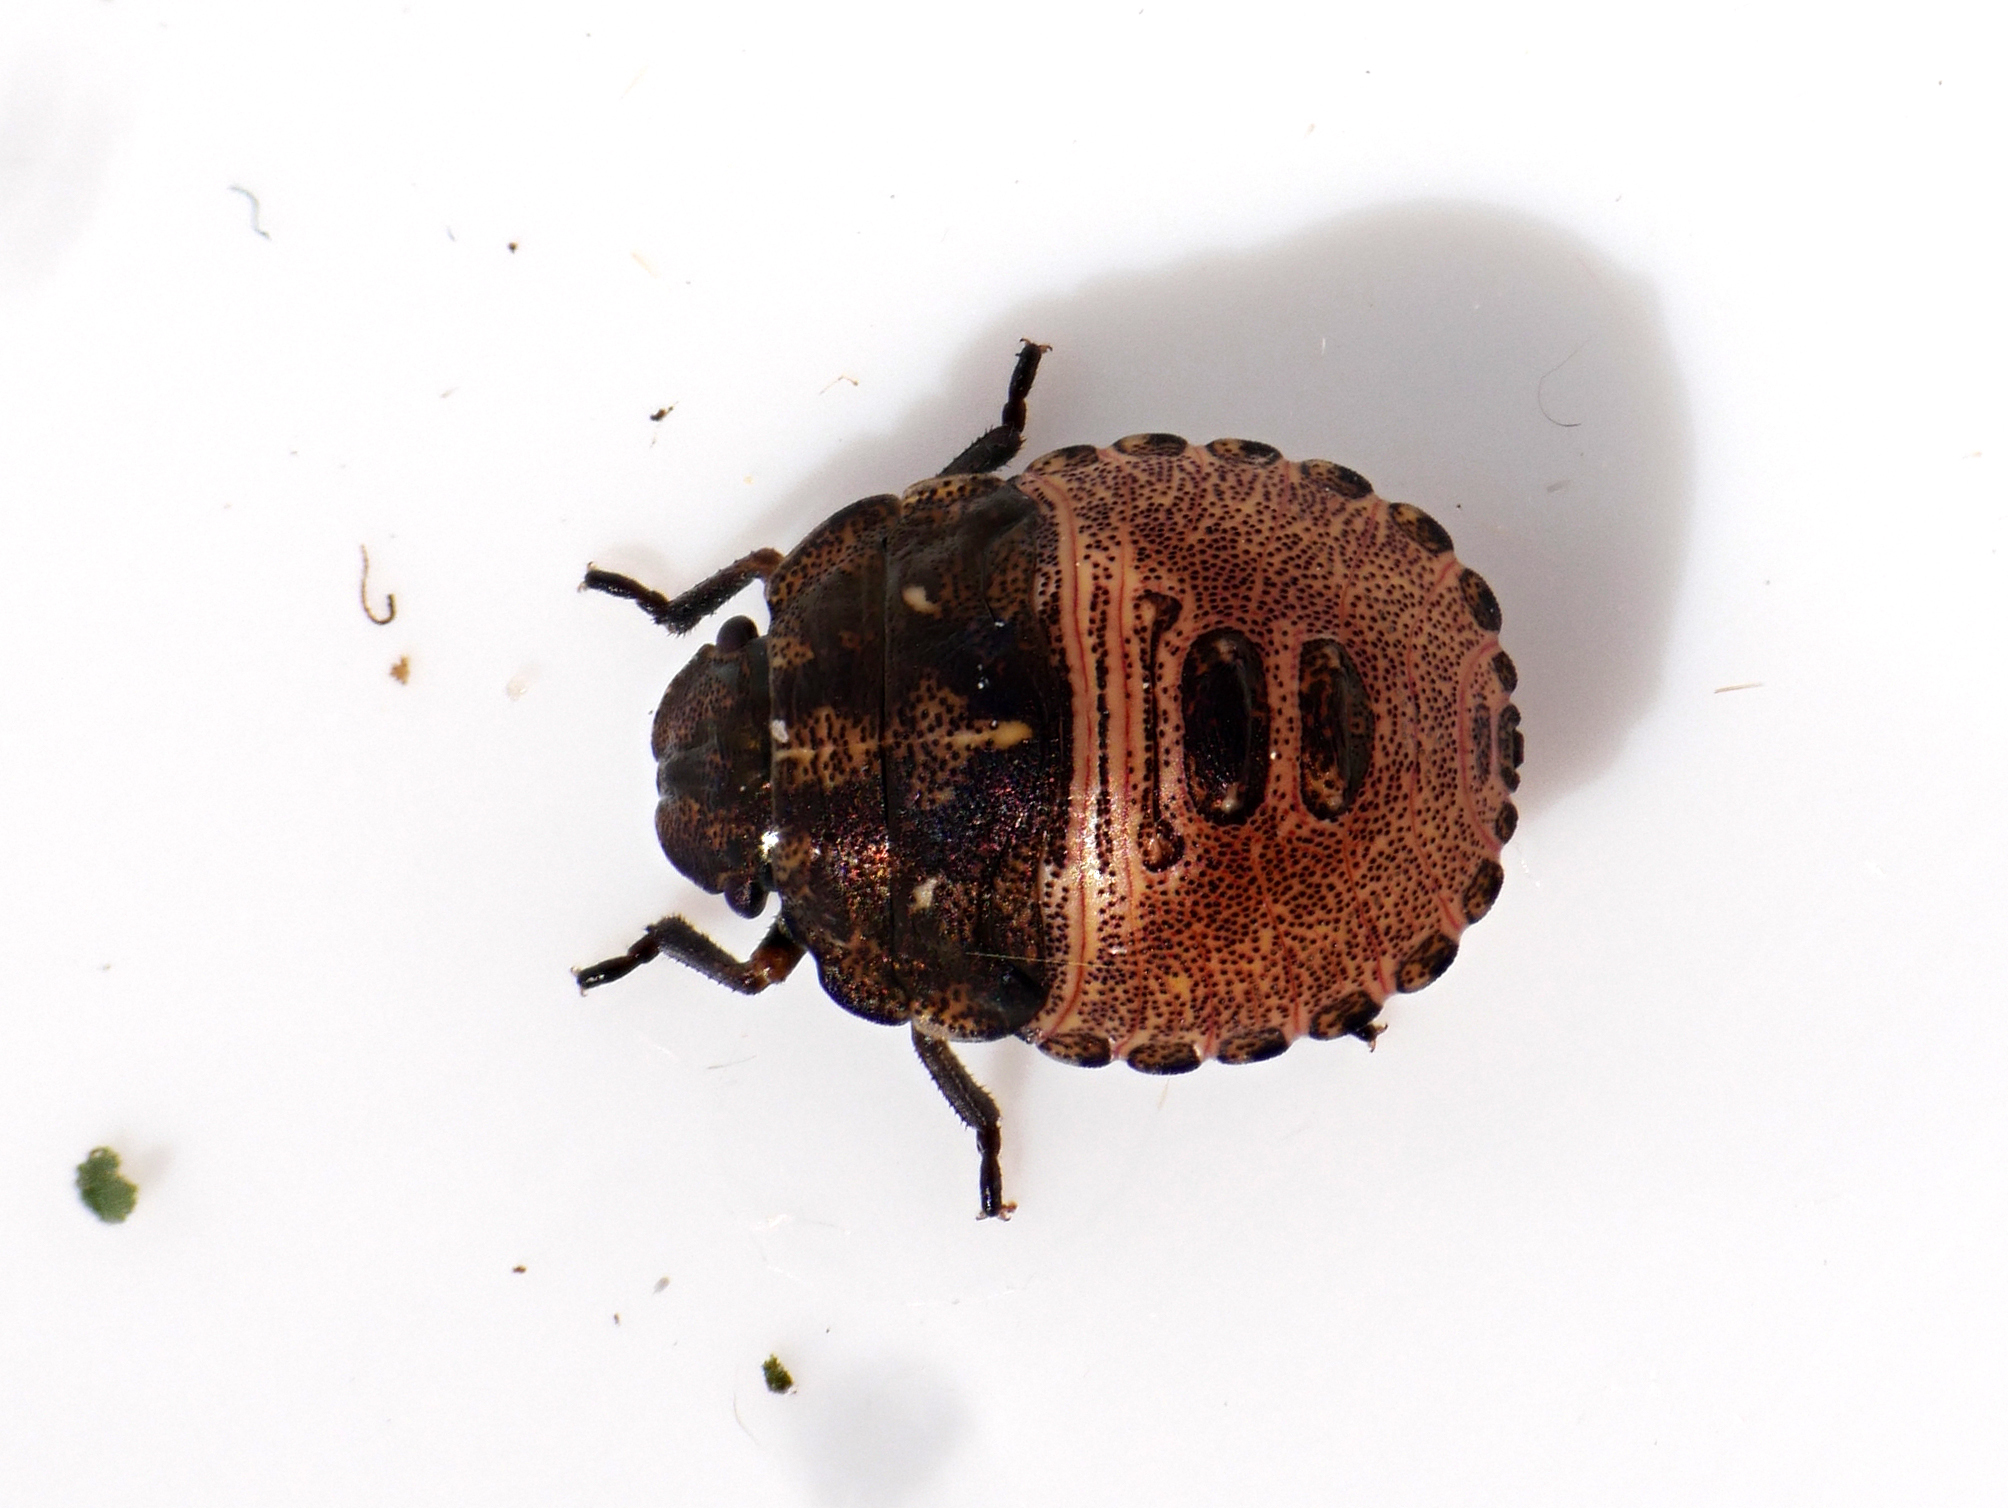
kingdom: Animalia
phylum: Arthropoda
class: Insecta
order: Hemiptera
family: Scutelleridae
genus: Eurygaster
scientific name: Eurygaster testudinaria
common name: Tortoise bug
